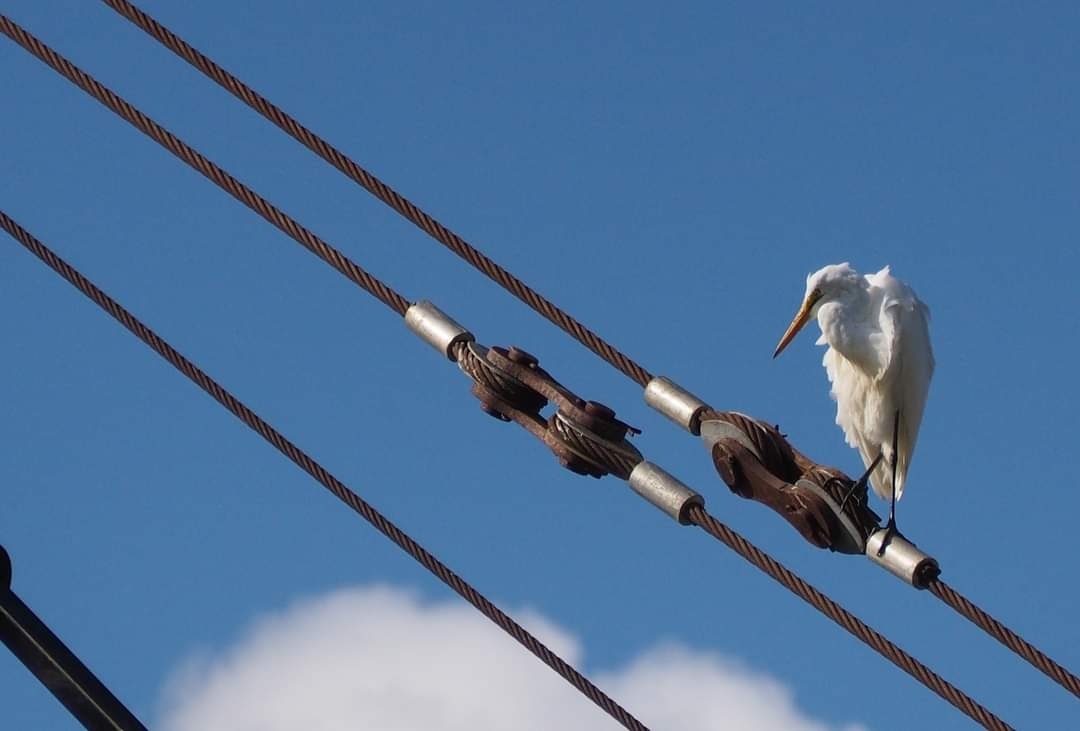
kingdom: Animalia
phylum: Chordata
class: Aves
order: Pelecaniformes
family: Ardeidae
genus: Ardea
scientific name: Ardea alba
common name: Great egret
